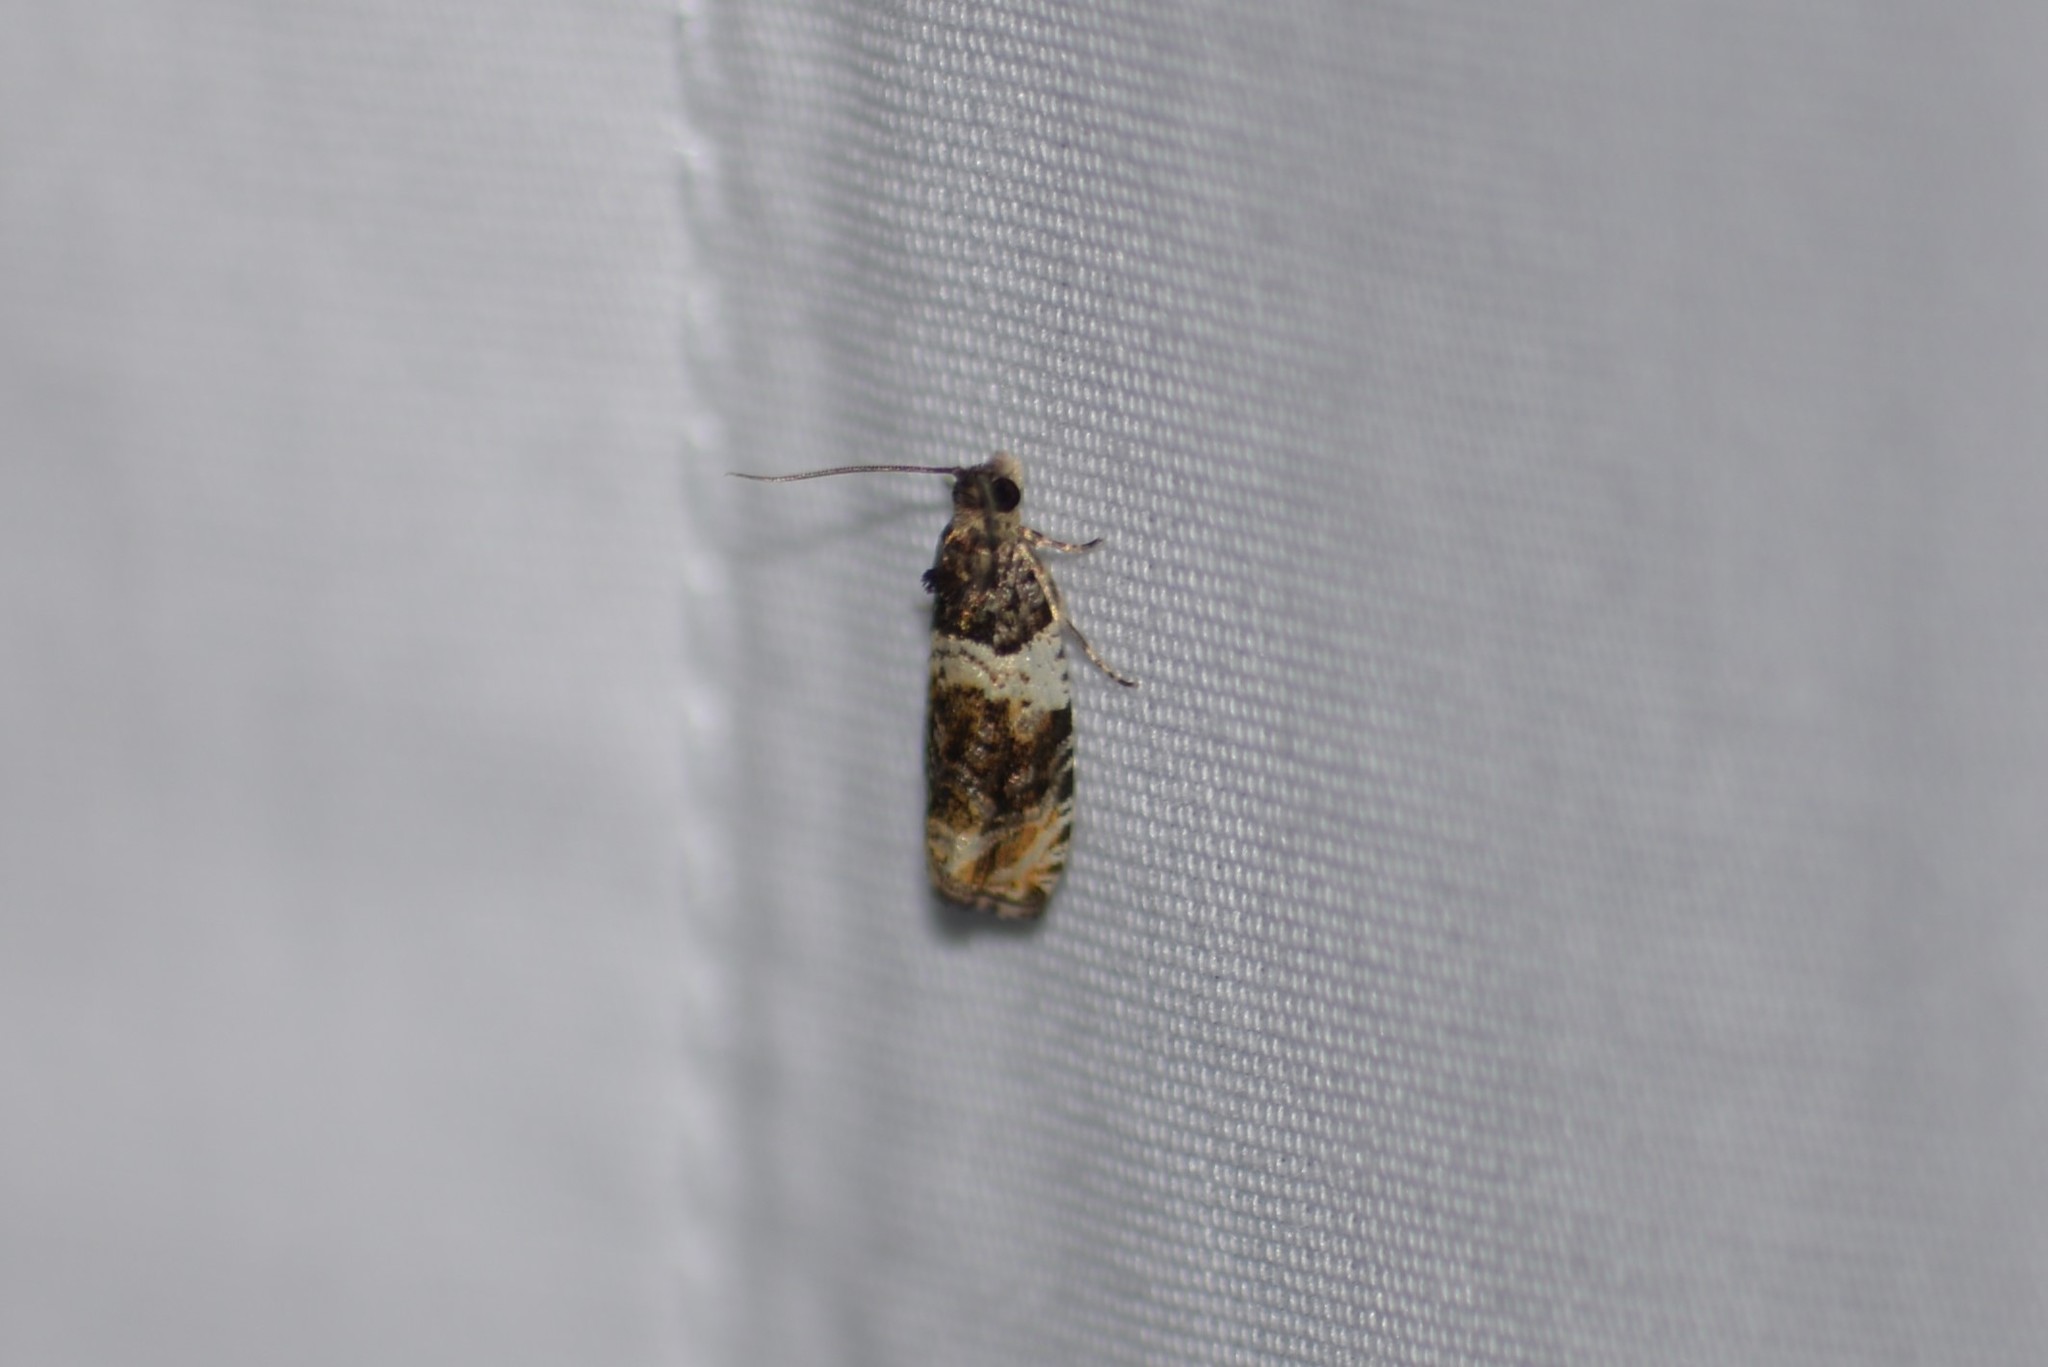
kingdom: Animalia
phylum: Arthropoda
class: Insecta
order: Lepidoptera
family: Tortricidae
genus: Olethreutes
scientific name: Olethreutes fasciatana
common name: Banded olethreutes moth
